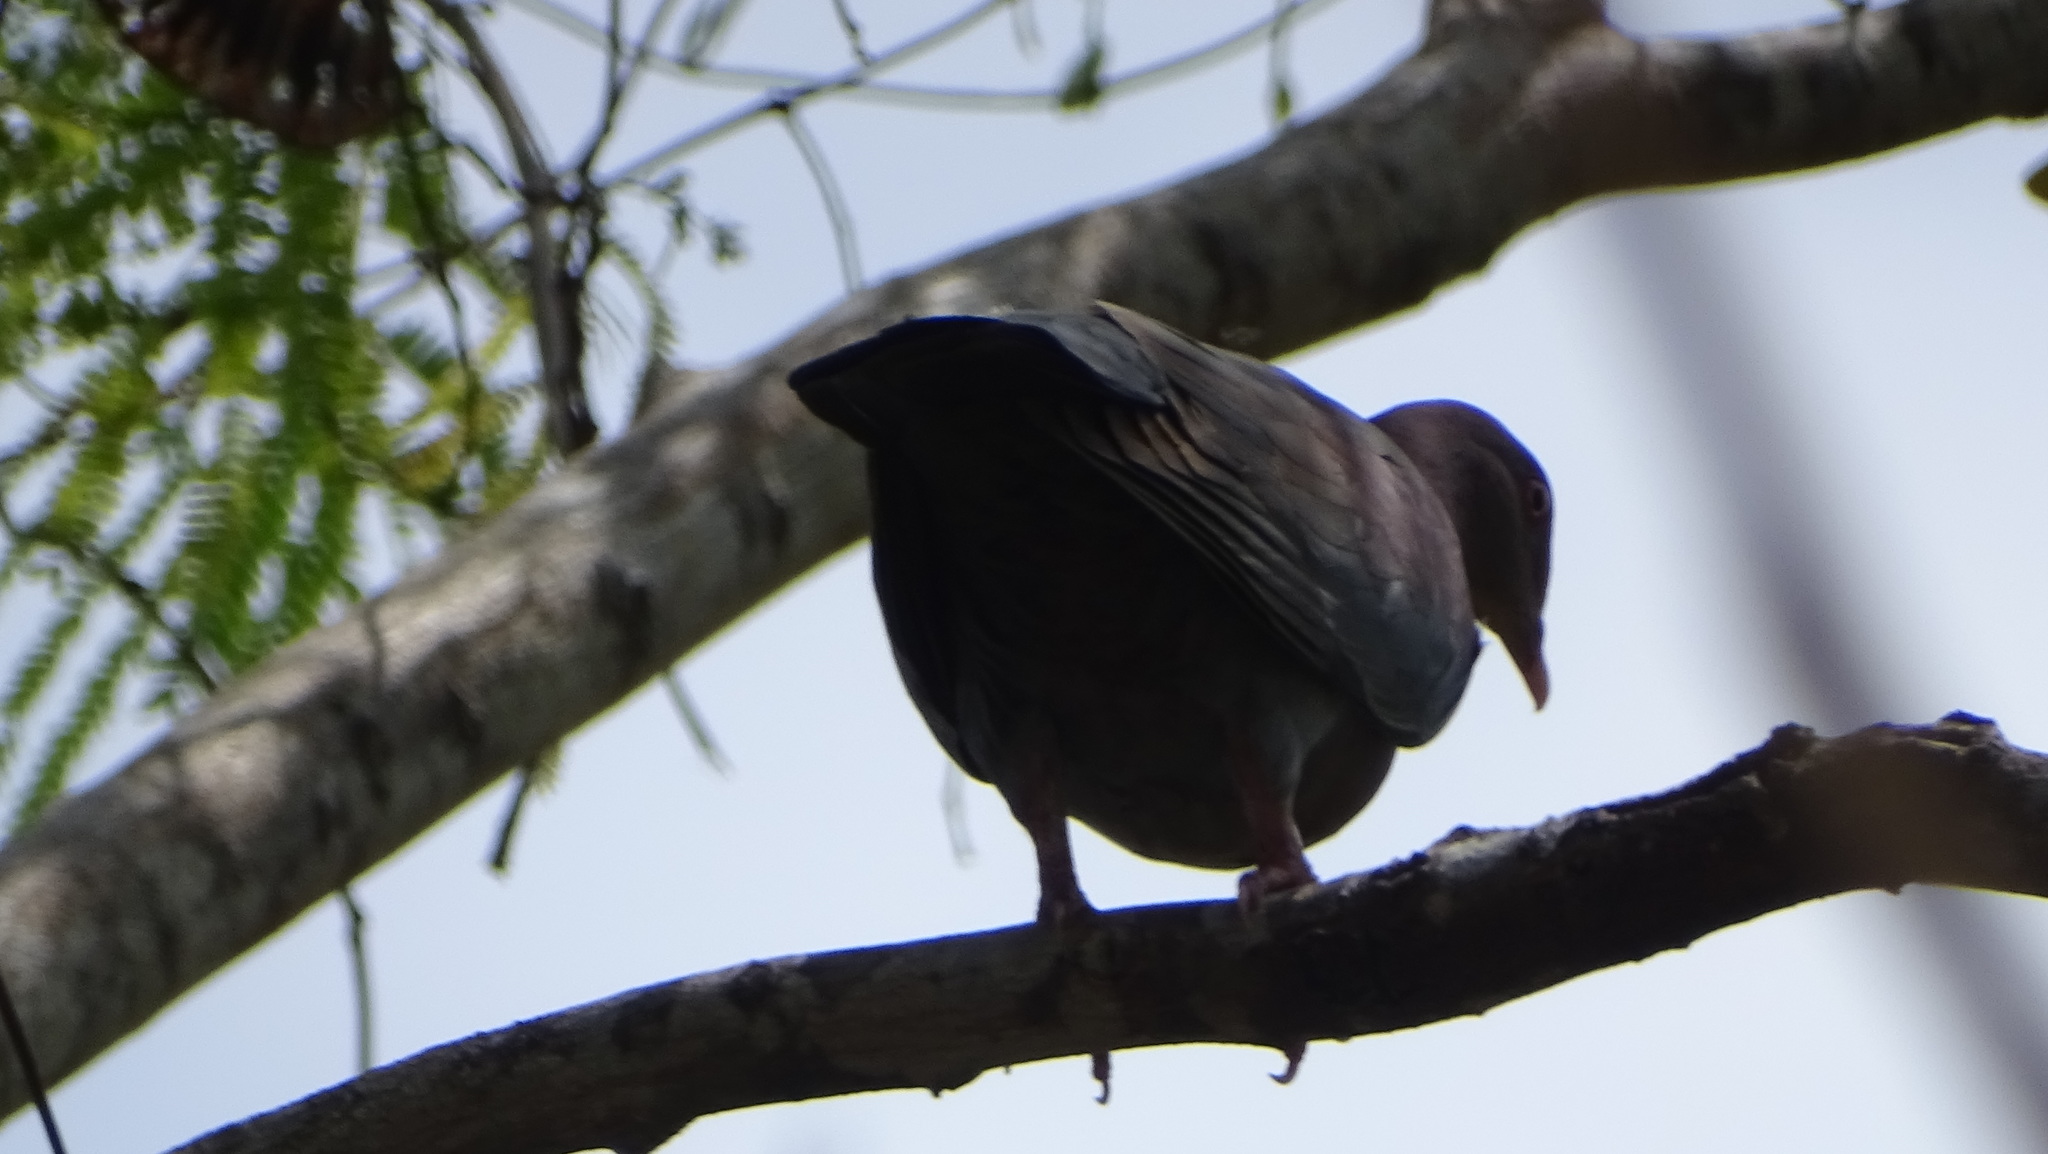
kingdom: Animalia
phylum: Chordata
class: Aves
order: Columbiformes
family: Columbidae
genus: Patagioenas
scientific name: Patagioenas flavirostris
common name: Red-billed pigeon
